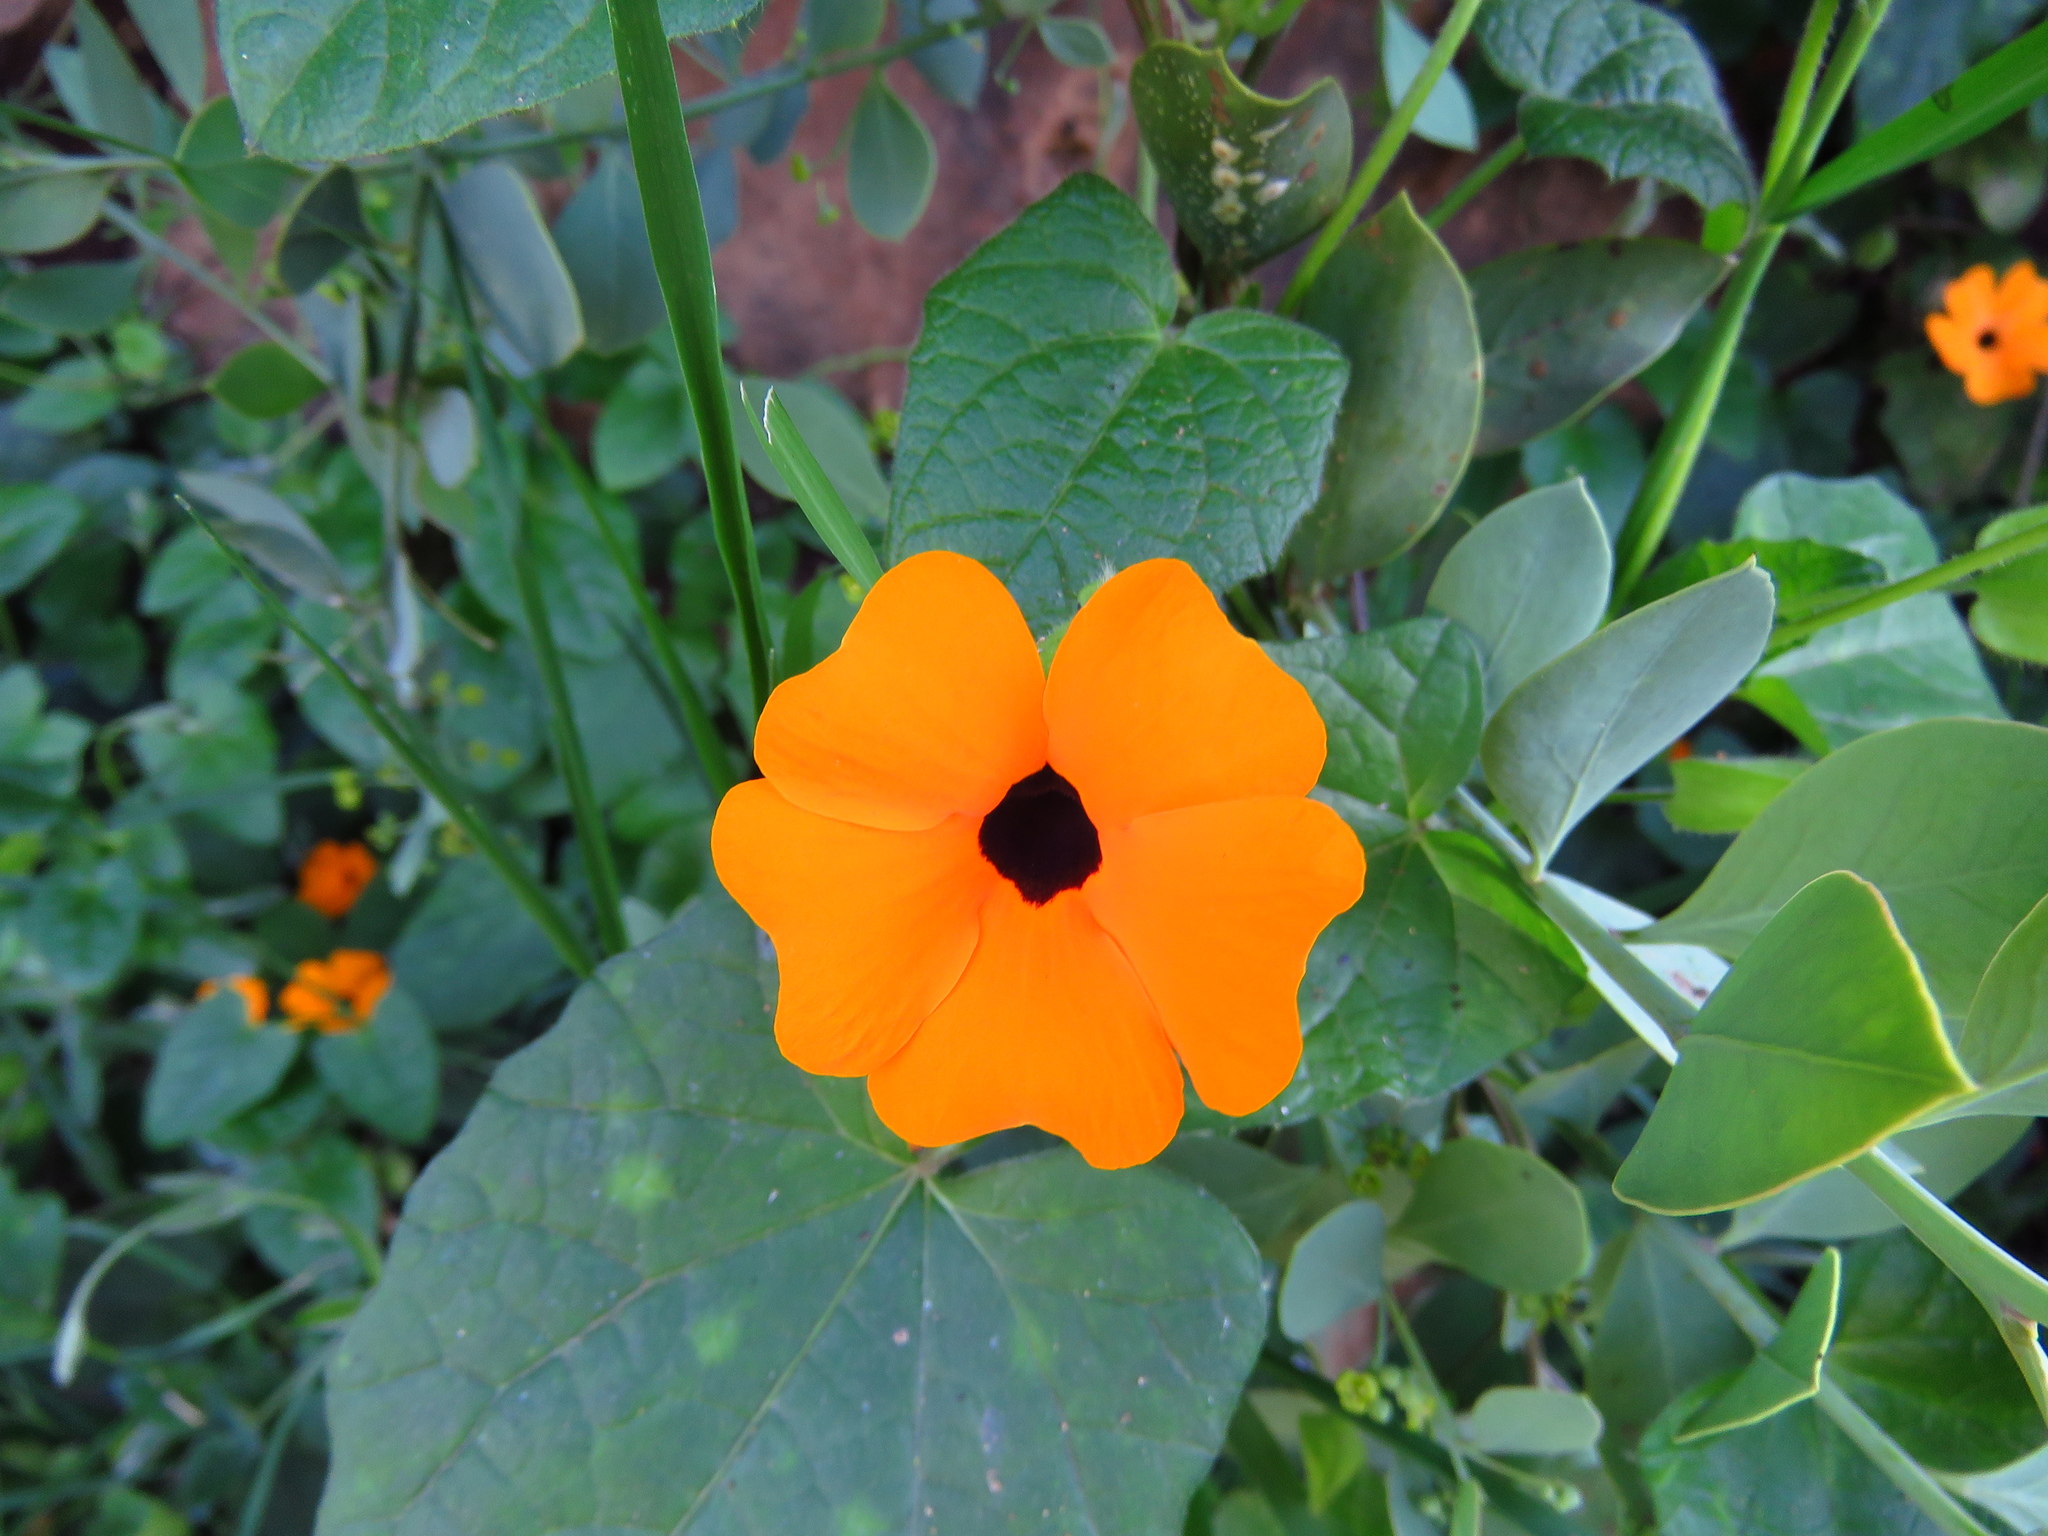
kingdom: Plantae
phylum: Tracheophyta
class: Magnoliopsida
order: Lamiales
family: Acanthaceae
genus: Thunbergia
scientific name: Thunbergia alata
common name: Blackeyed susan vine
